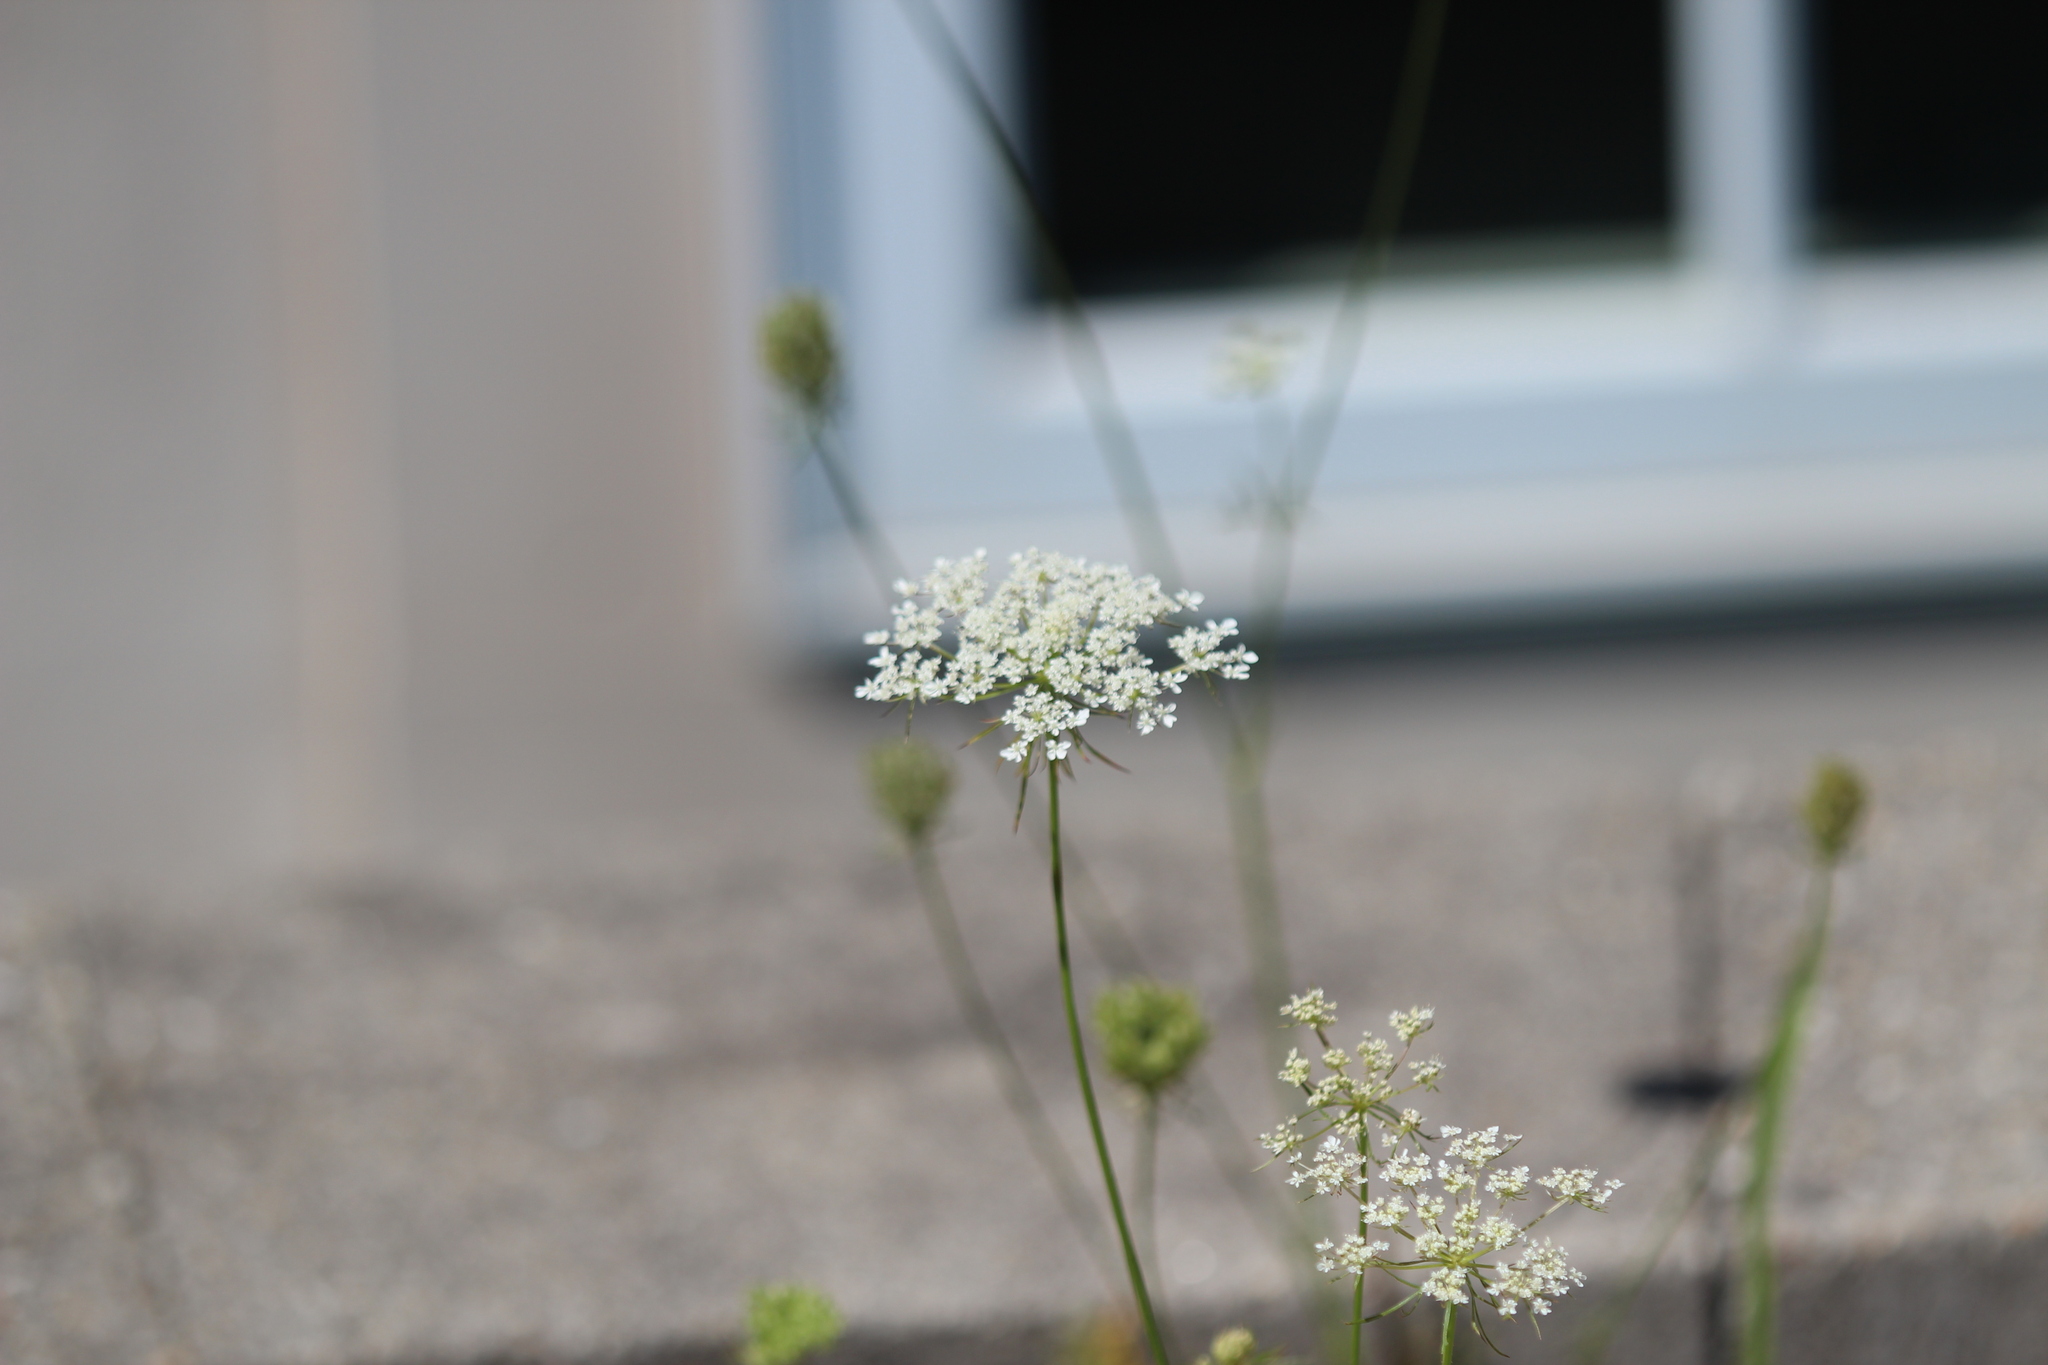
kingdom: Plantae
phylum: Tracheophyta
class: Magnoliopsida
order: Apiales
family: Apiaceae
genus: Daucus
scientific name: Daucus carota
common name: Wild carrot
